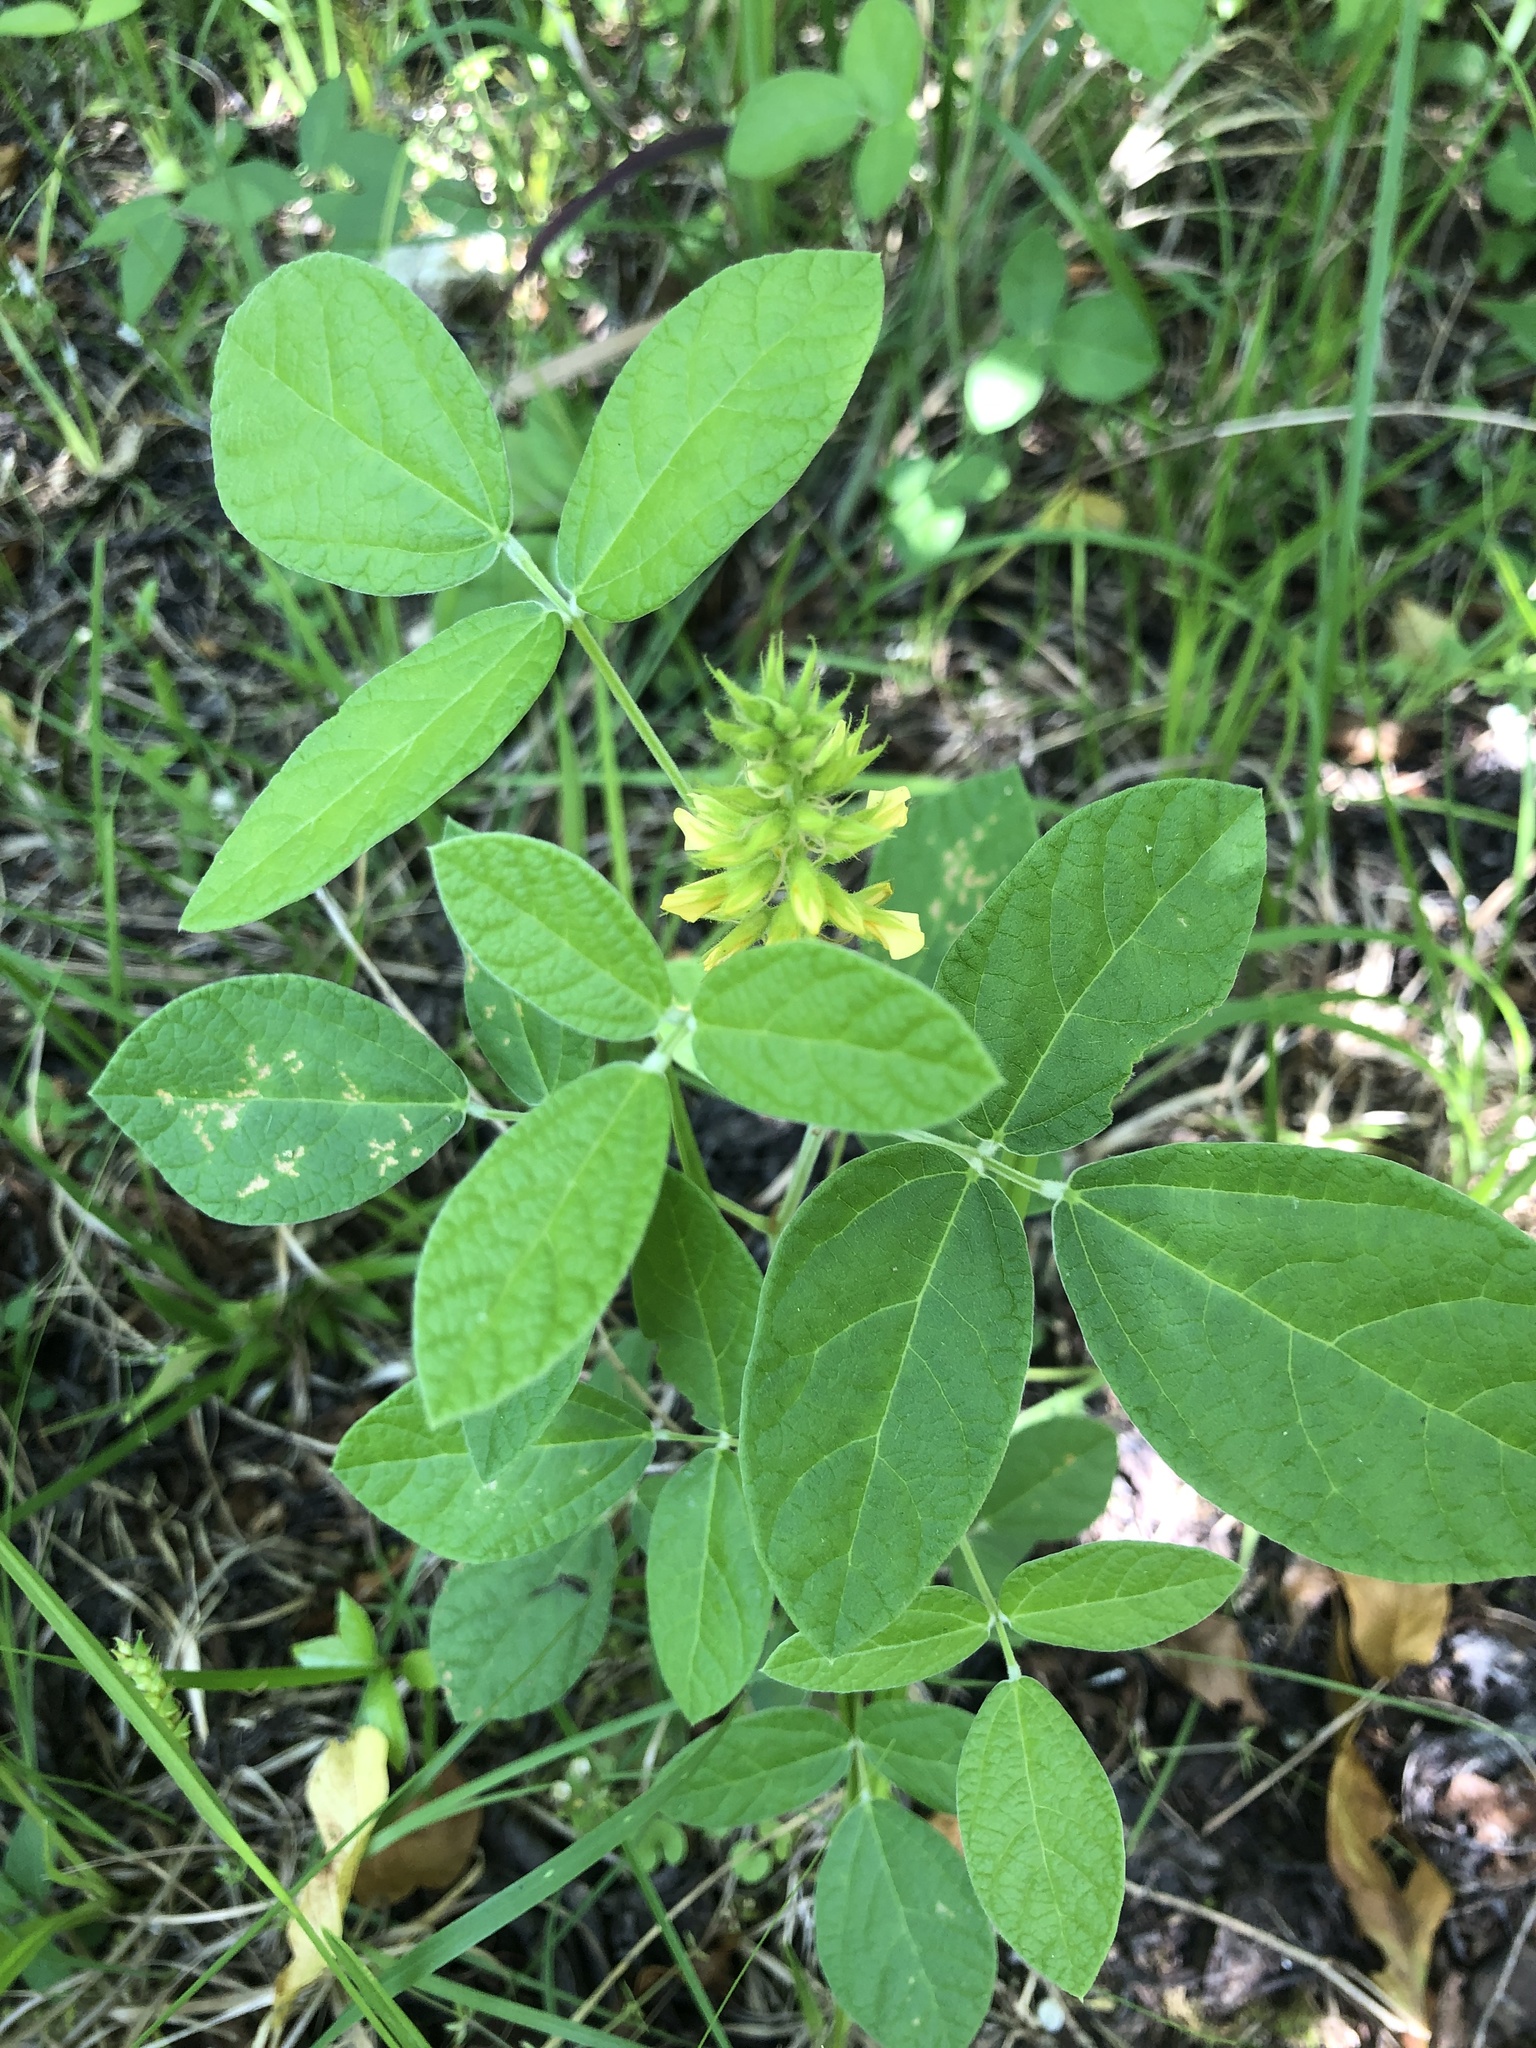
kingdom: Plantae
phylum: Tracheophyta
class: Magnoliopsida
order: Fabales
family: Fabaceae
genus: Rhynchosia
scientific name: Rhynchosia tomentosa
